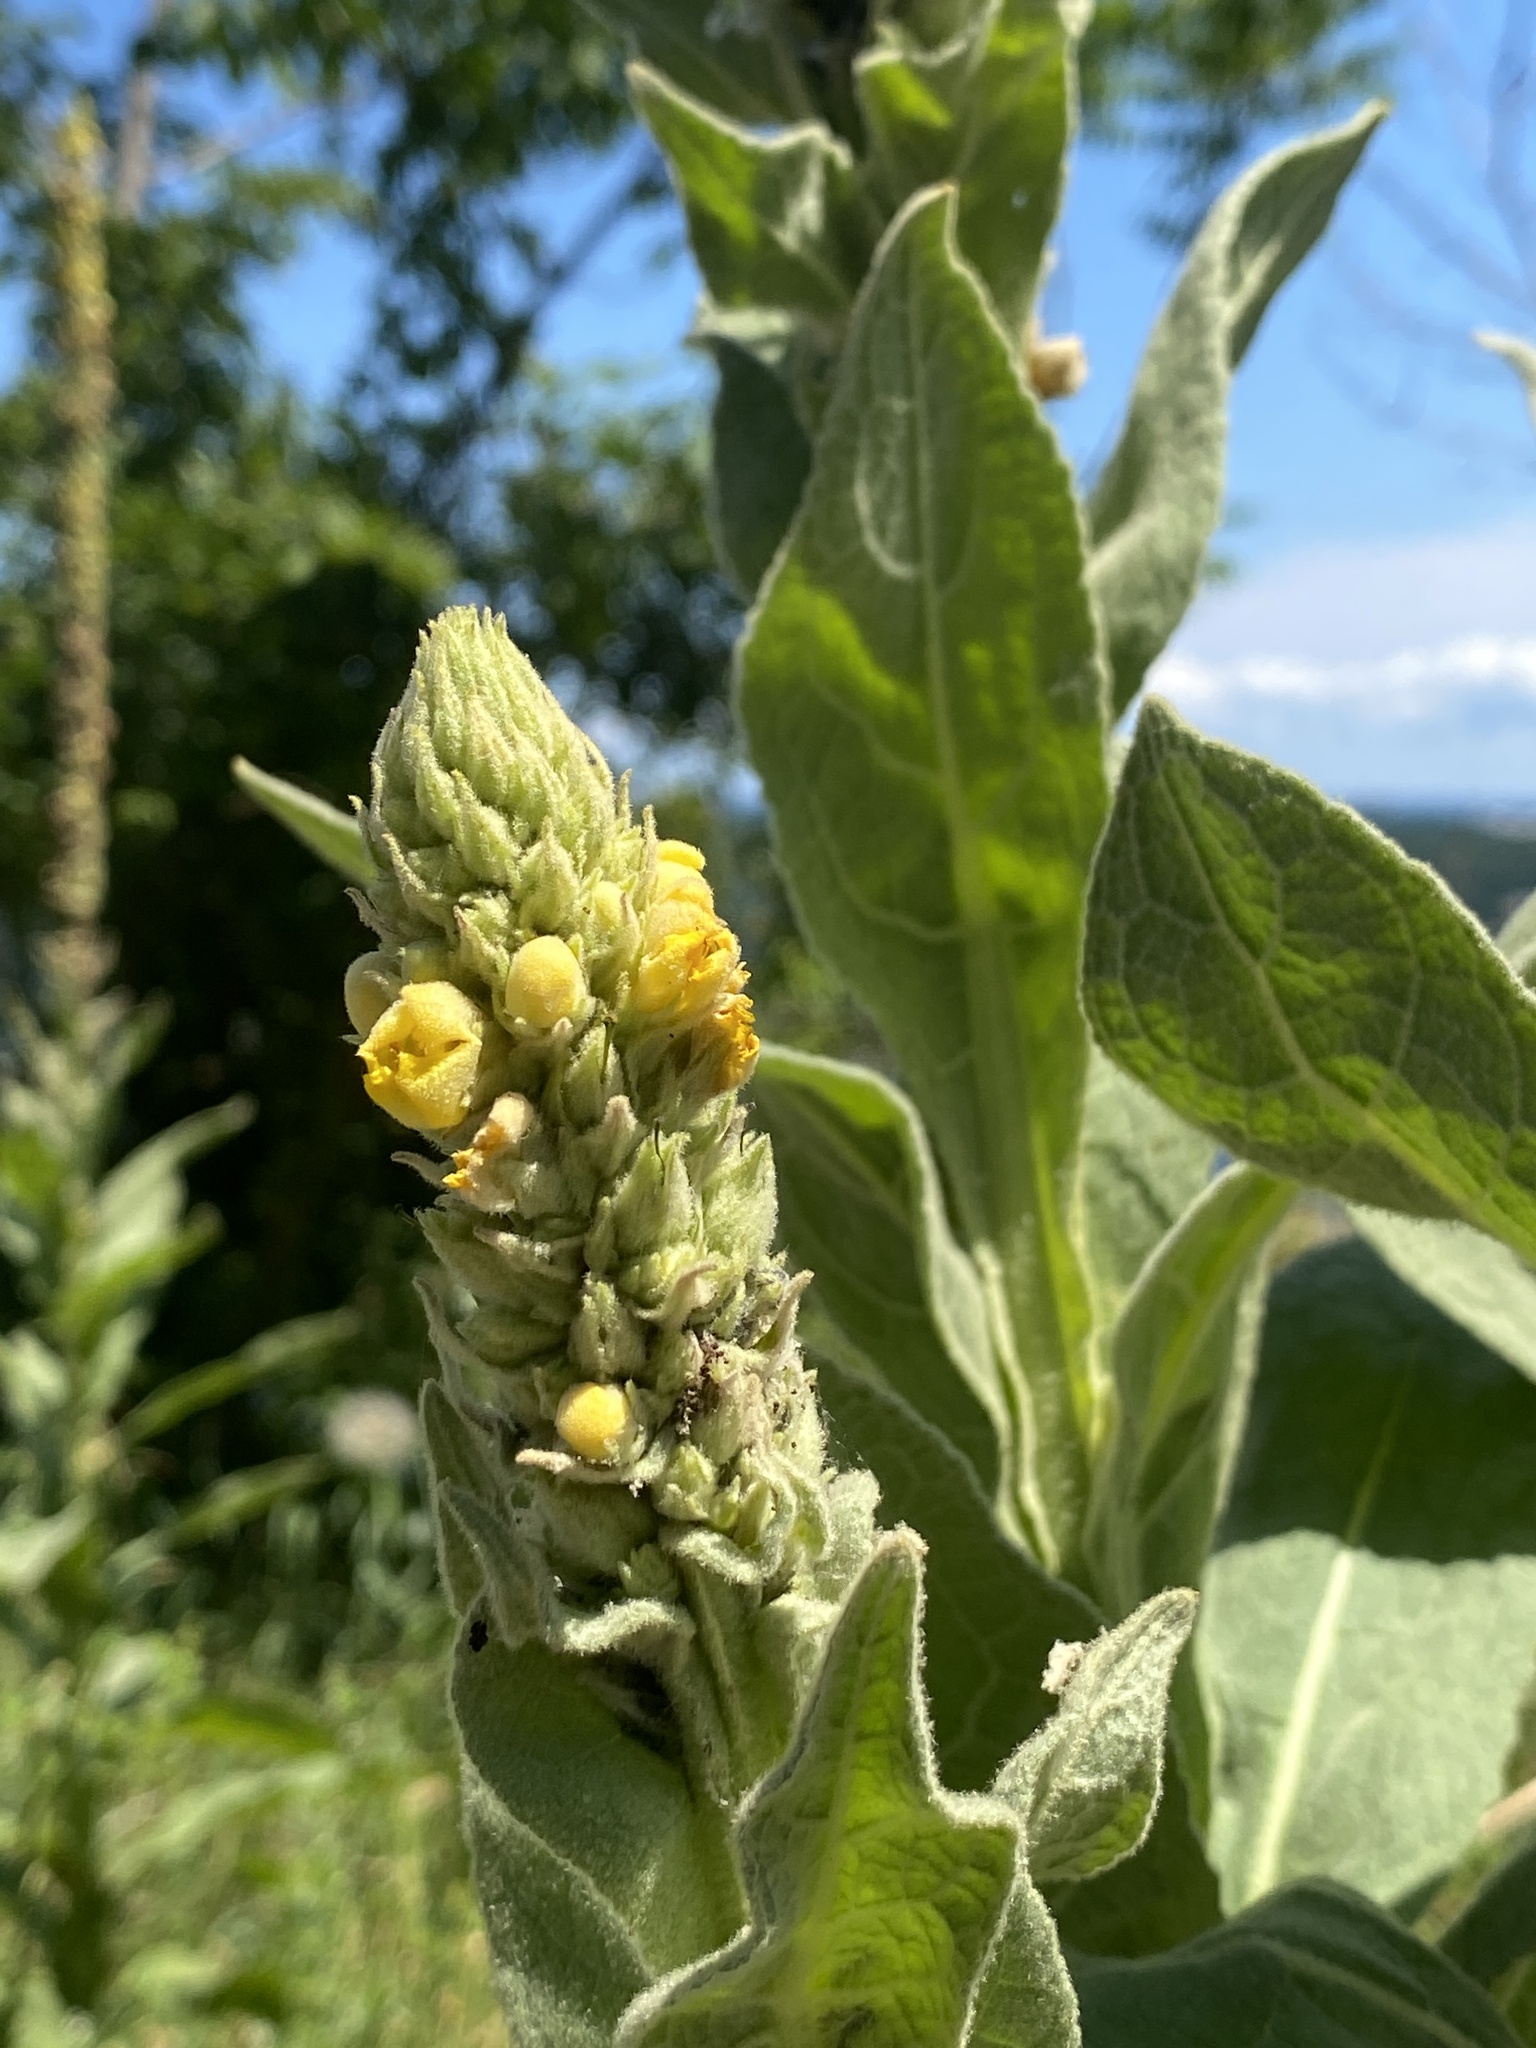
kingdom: Plantae
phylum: Tracheophyta
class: Magnoliopsida
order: Lamiales
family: Scrophulariaceae
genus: Verbascum
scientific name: Verbascum thapsus
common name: Common mullein
